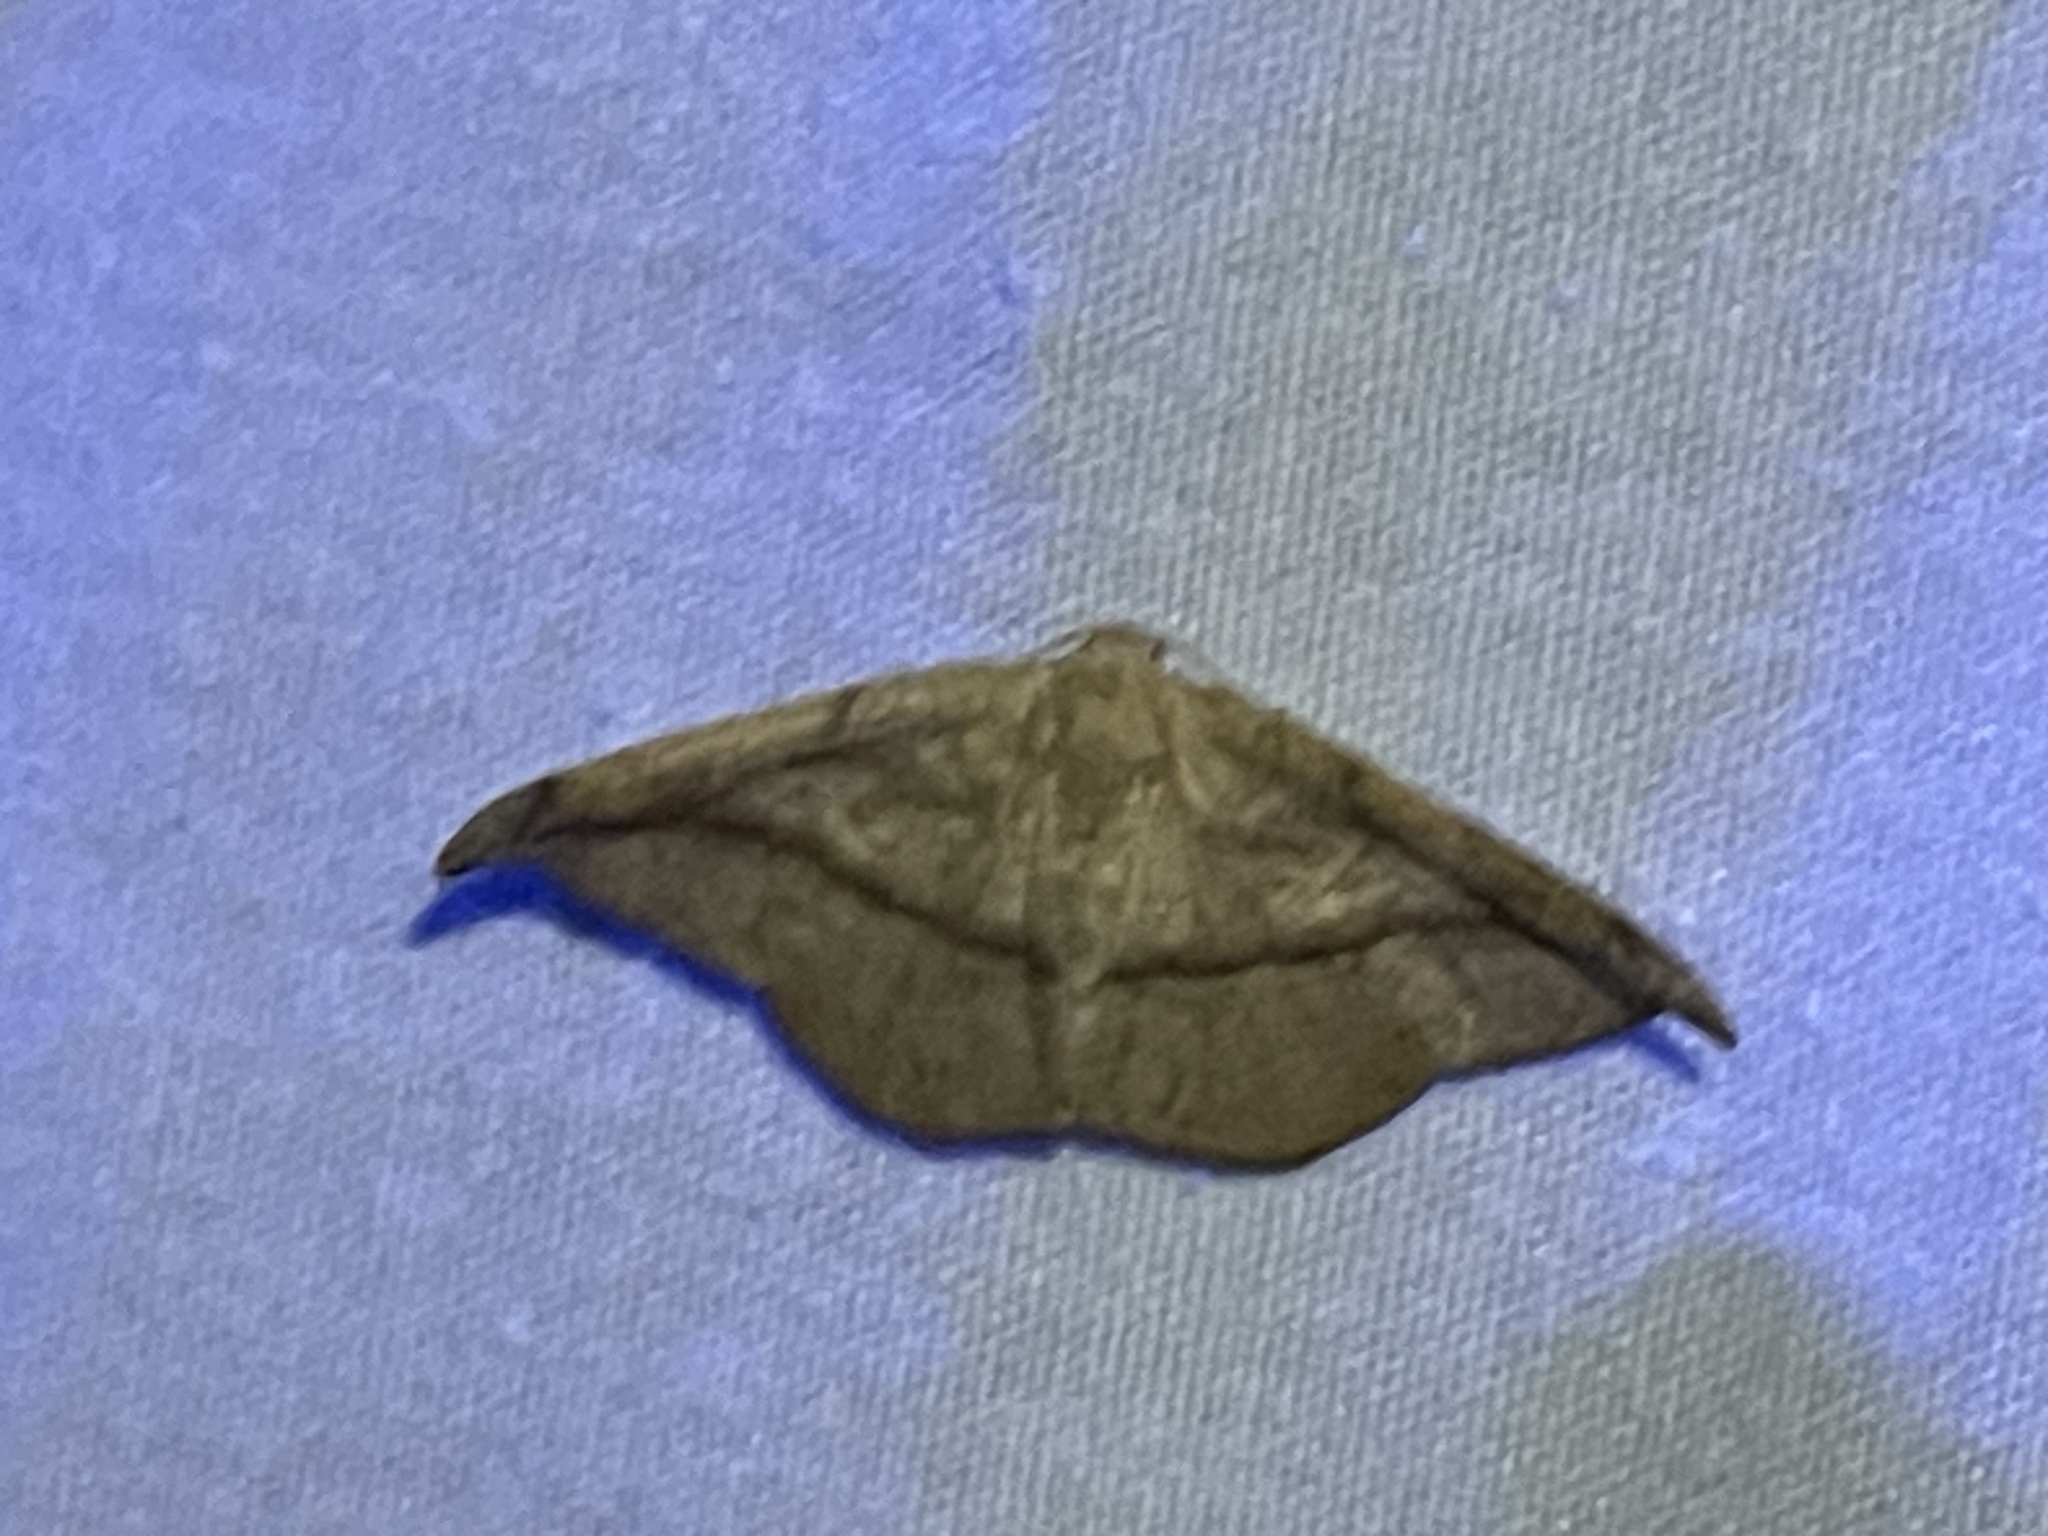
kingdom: Animalia
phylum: Arthropoda
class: Insecta
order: Lepidoptera
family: Geometridae
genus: Patalene
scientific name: Patalene olyzonaria
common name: Juniper geometer moth
